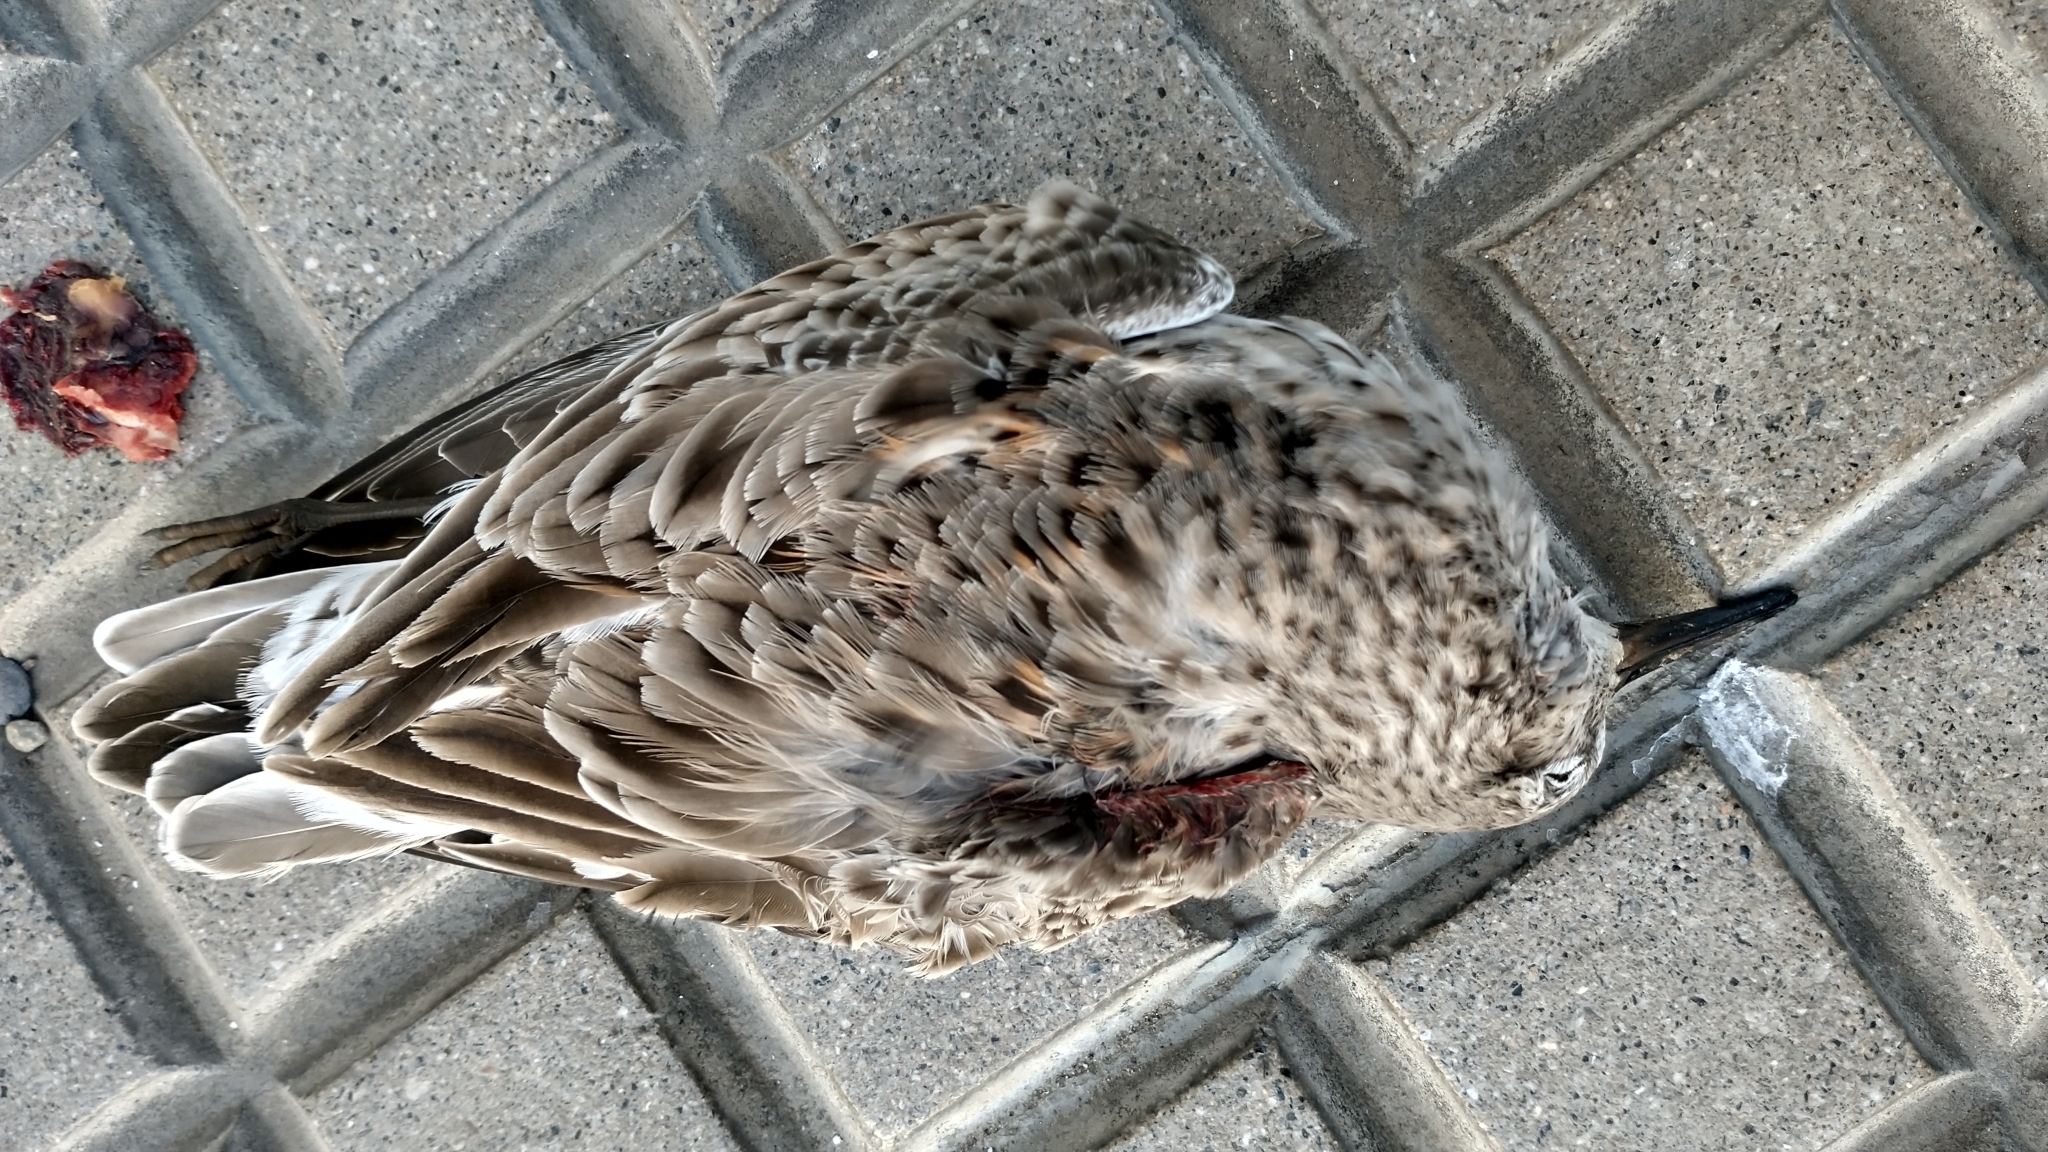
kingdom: Animalia
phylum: Chordata
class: Aves
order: Charadriiformes
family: Scolopacidae
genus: Calidris
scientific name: Calidris fuscicollis
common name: White-rumped sandpiper
